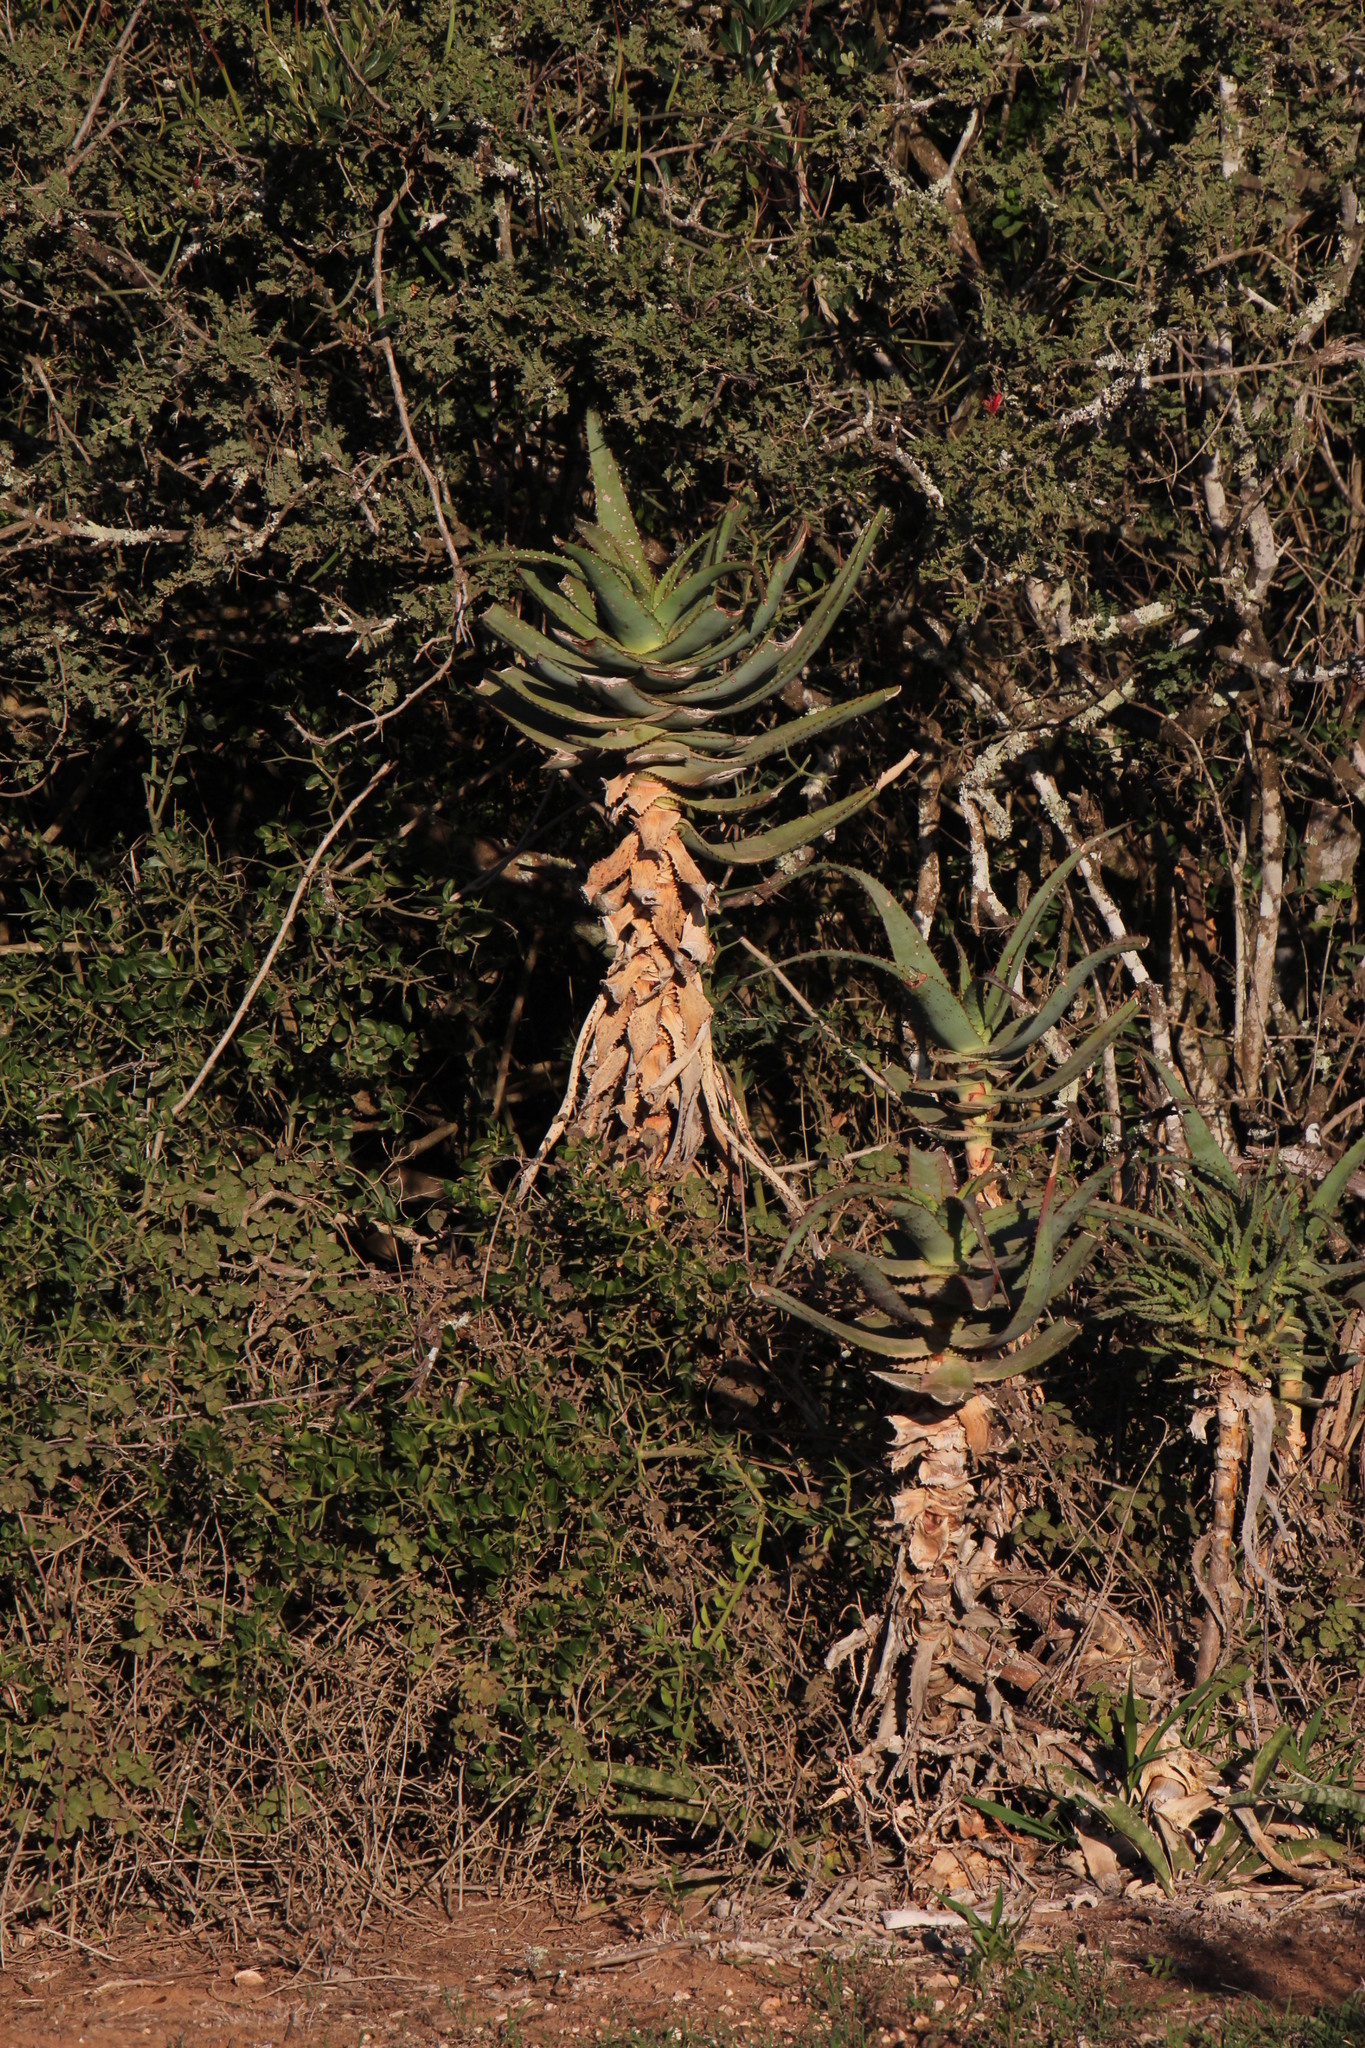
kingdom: Plantae
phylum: Tracheophyta
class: Liliopsida
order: Asparagales
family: Asphodelaceae
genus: Aloe
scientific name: Aloe africana
